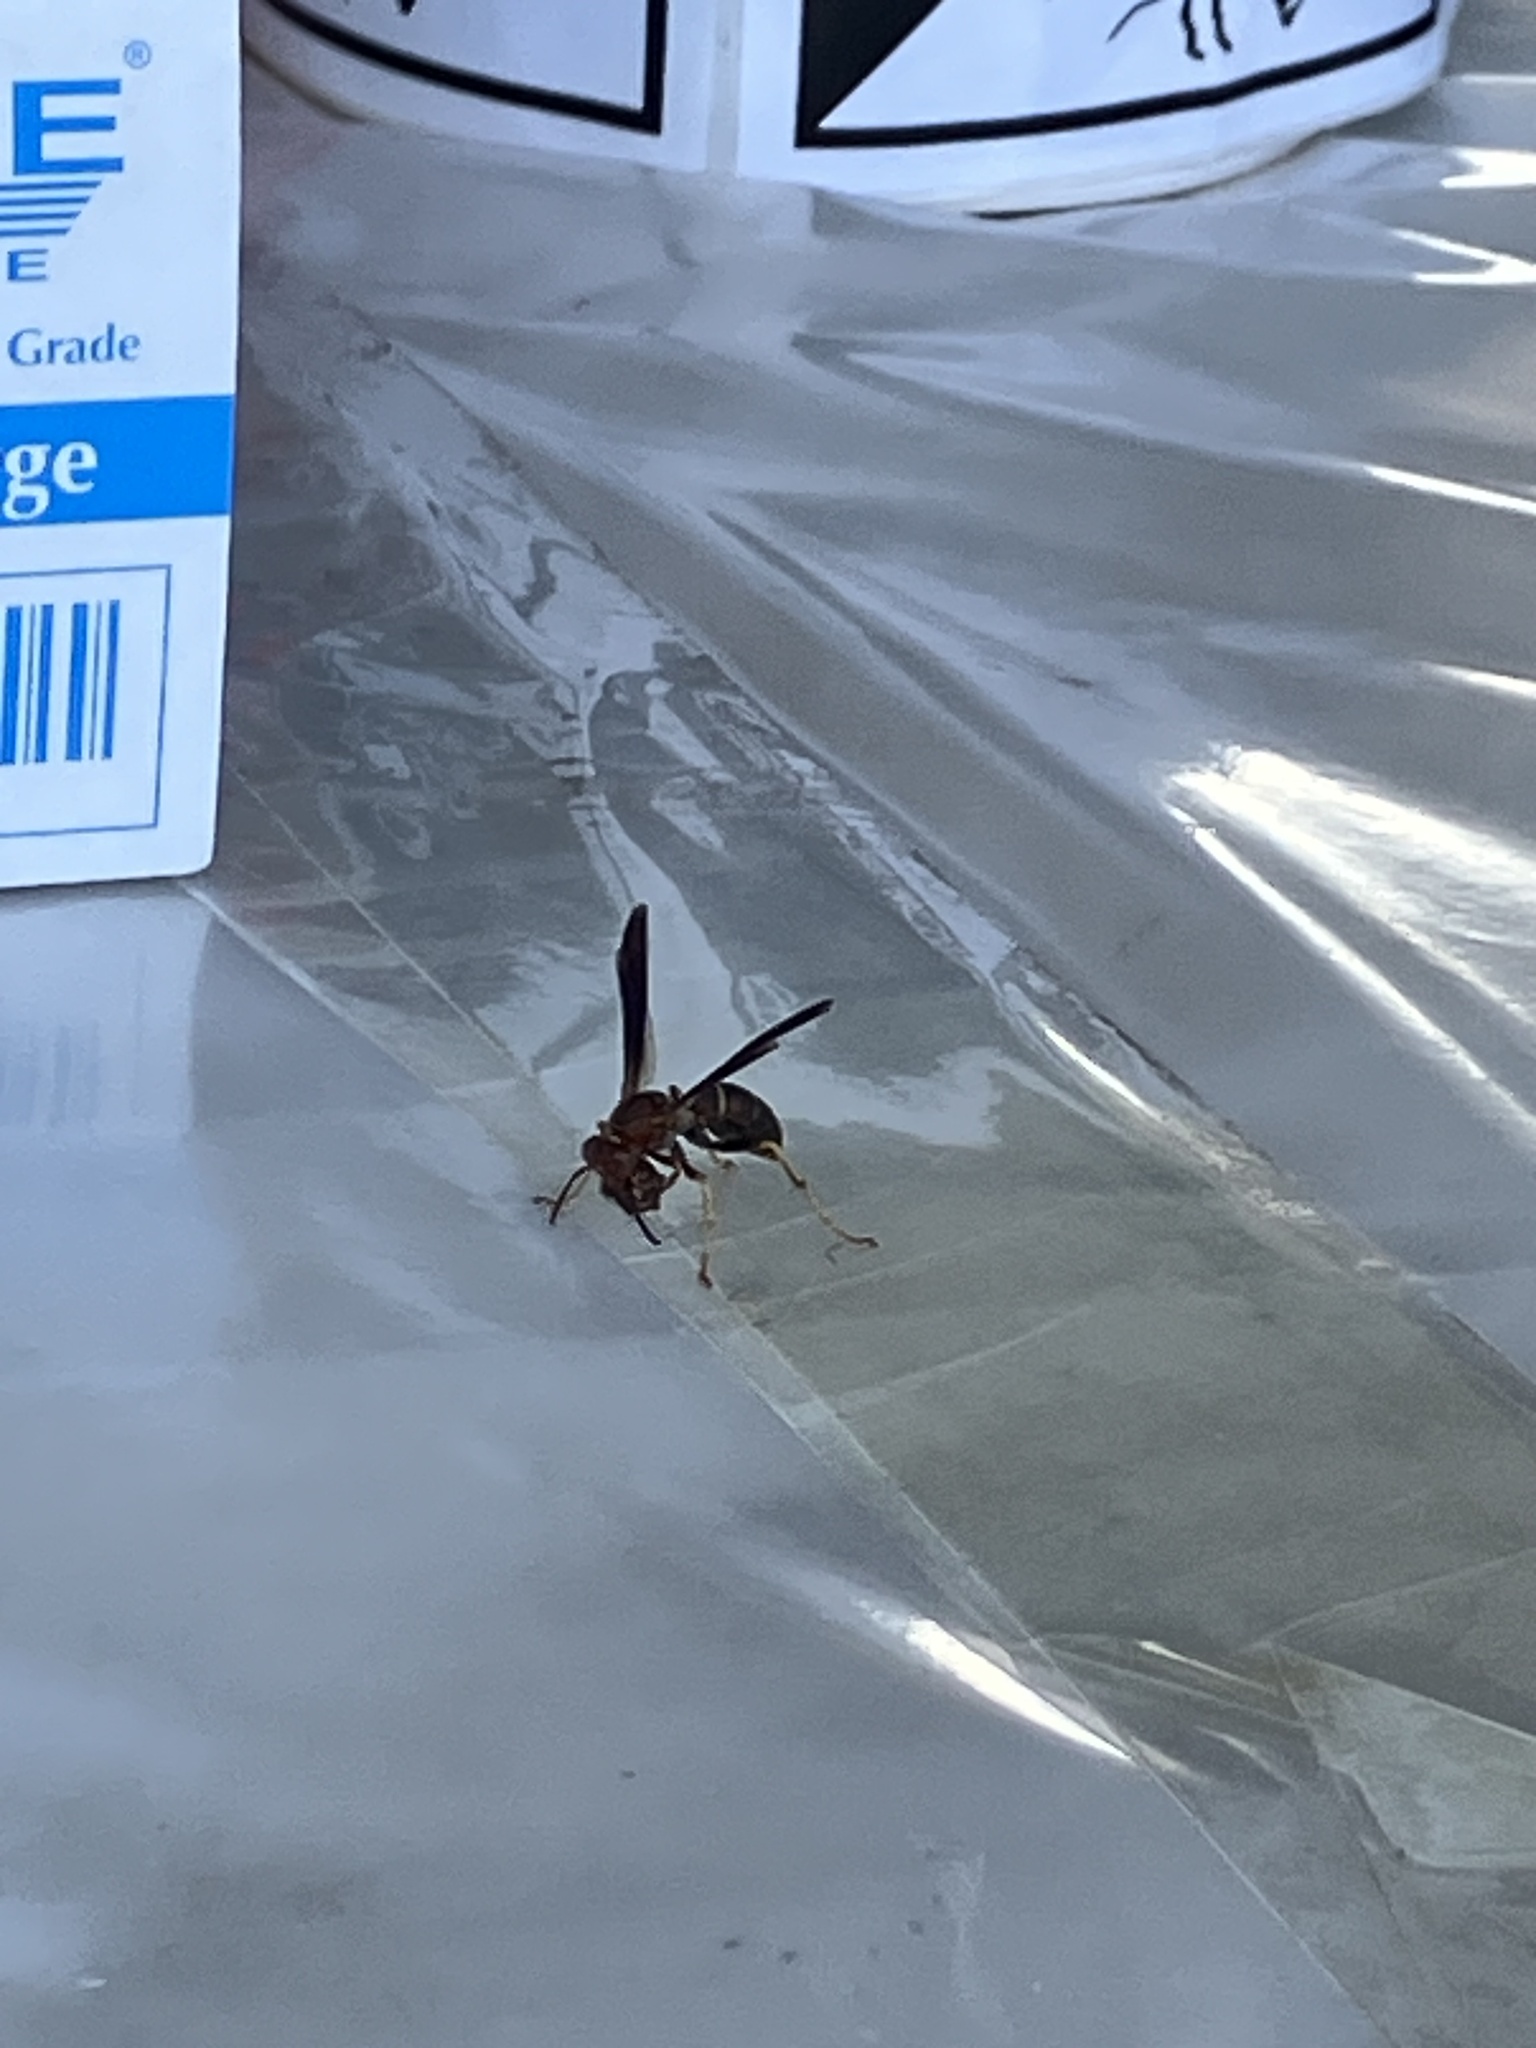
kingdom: Animalia
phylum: Arthropoda
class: Insecta
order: Hymenoptera
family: Vespidae
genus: Fuscopolistes
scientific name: Fuscopolistes
